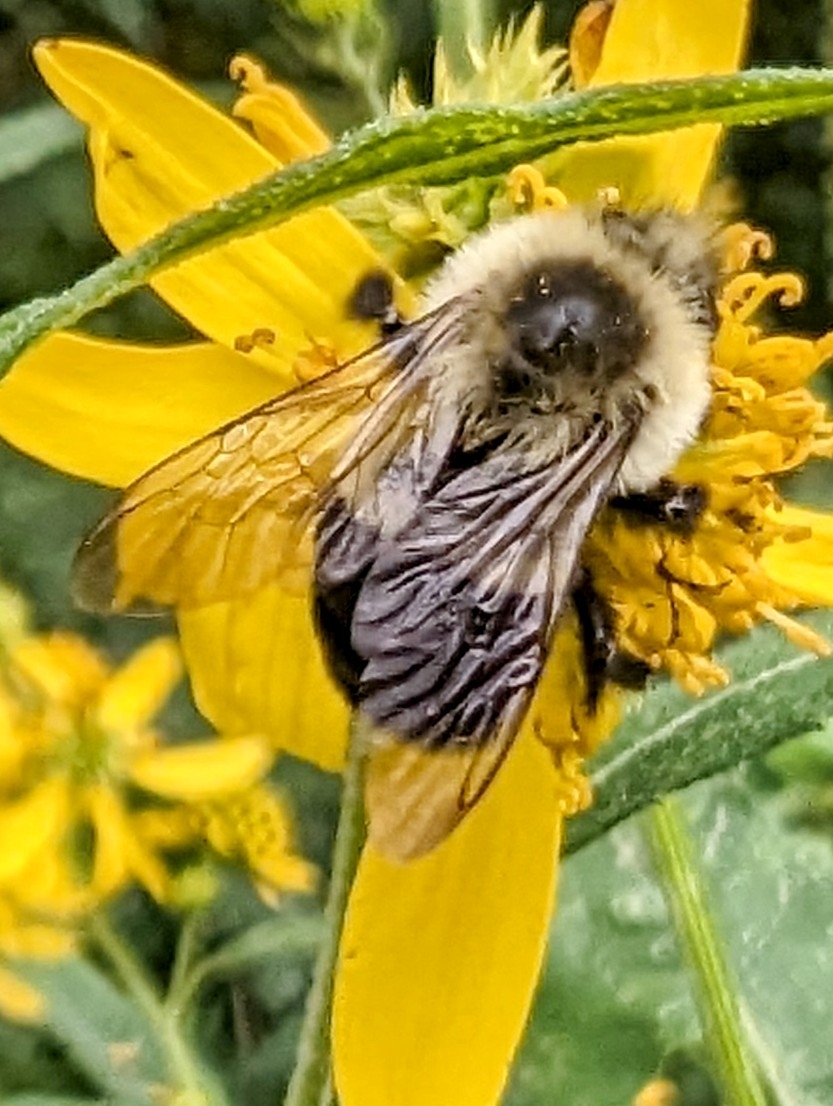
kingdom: Animalia
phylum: Arthropoda
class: Insecta
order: Hymenoptera
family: Apidae
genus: Bombus
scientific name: Bombus impatiens
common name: Common eastern bumble bee
